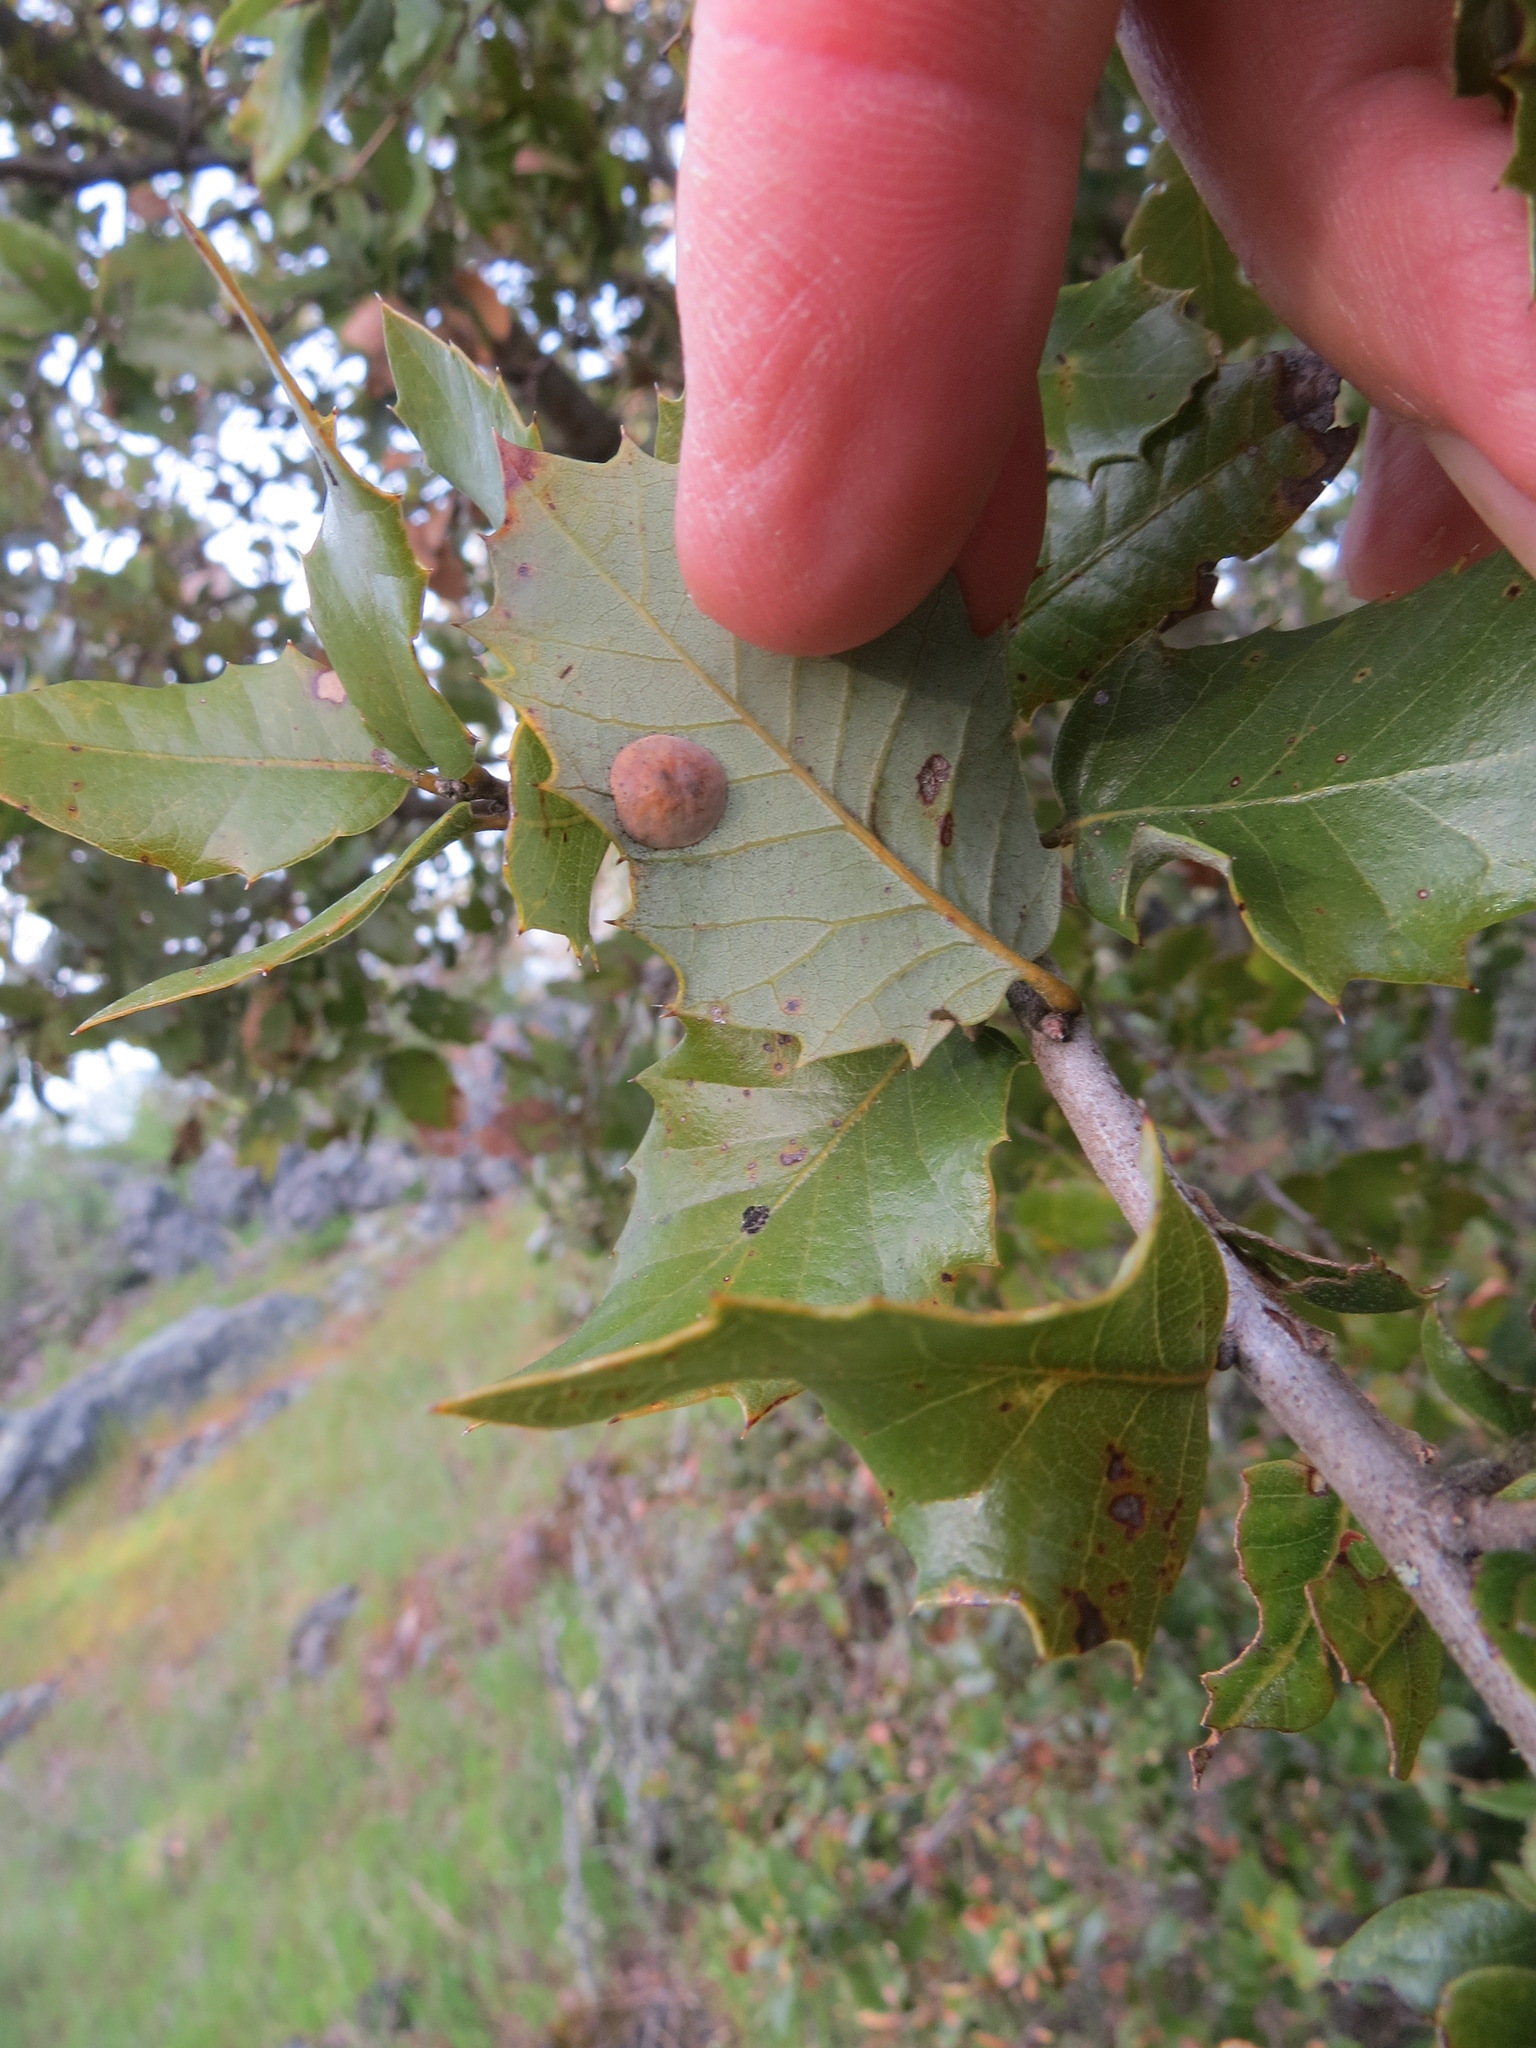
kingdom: Animalia
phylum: Arthropoda
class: Insecta
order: Hymenoptera
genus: Paracraspis
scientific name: Paracraspis
